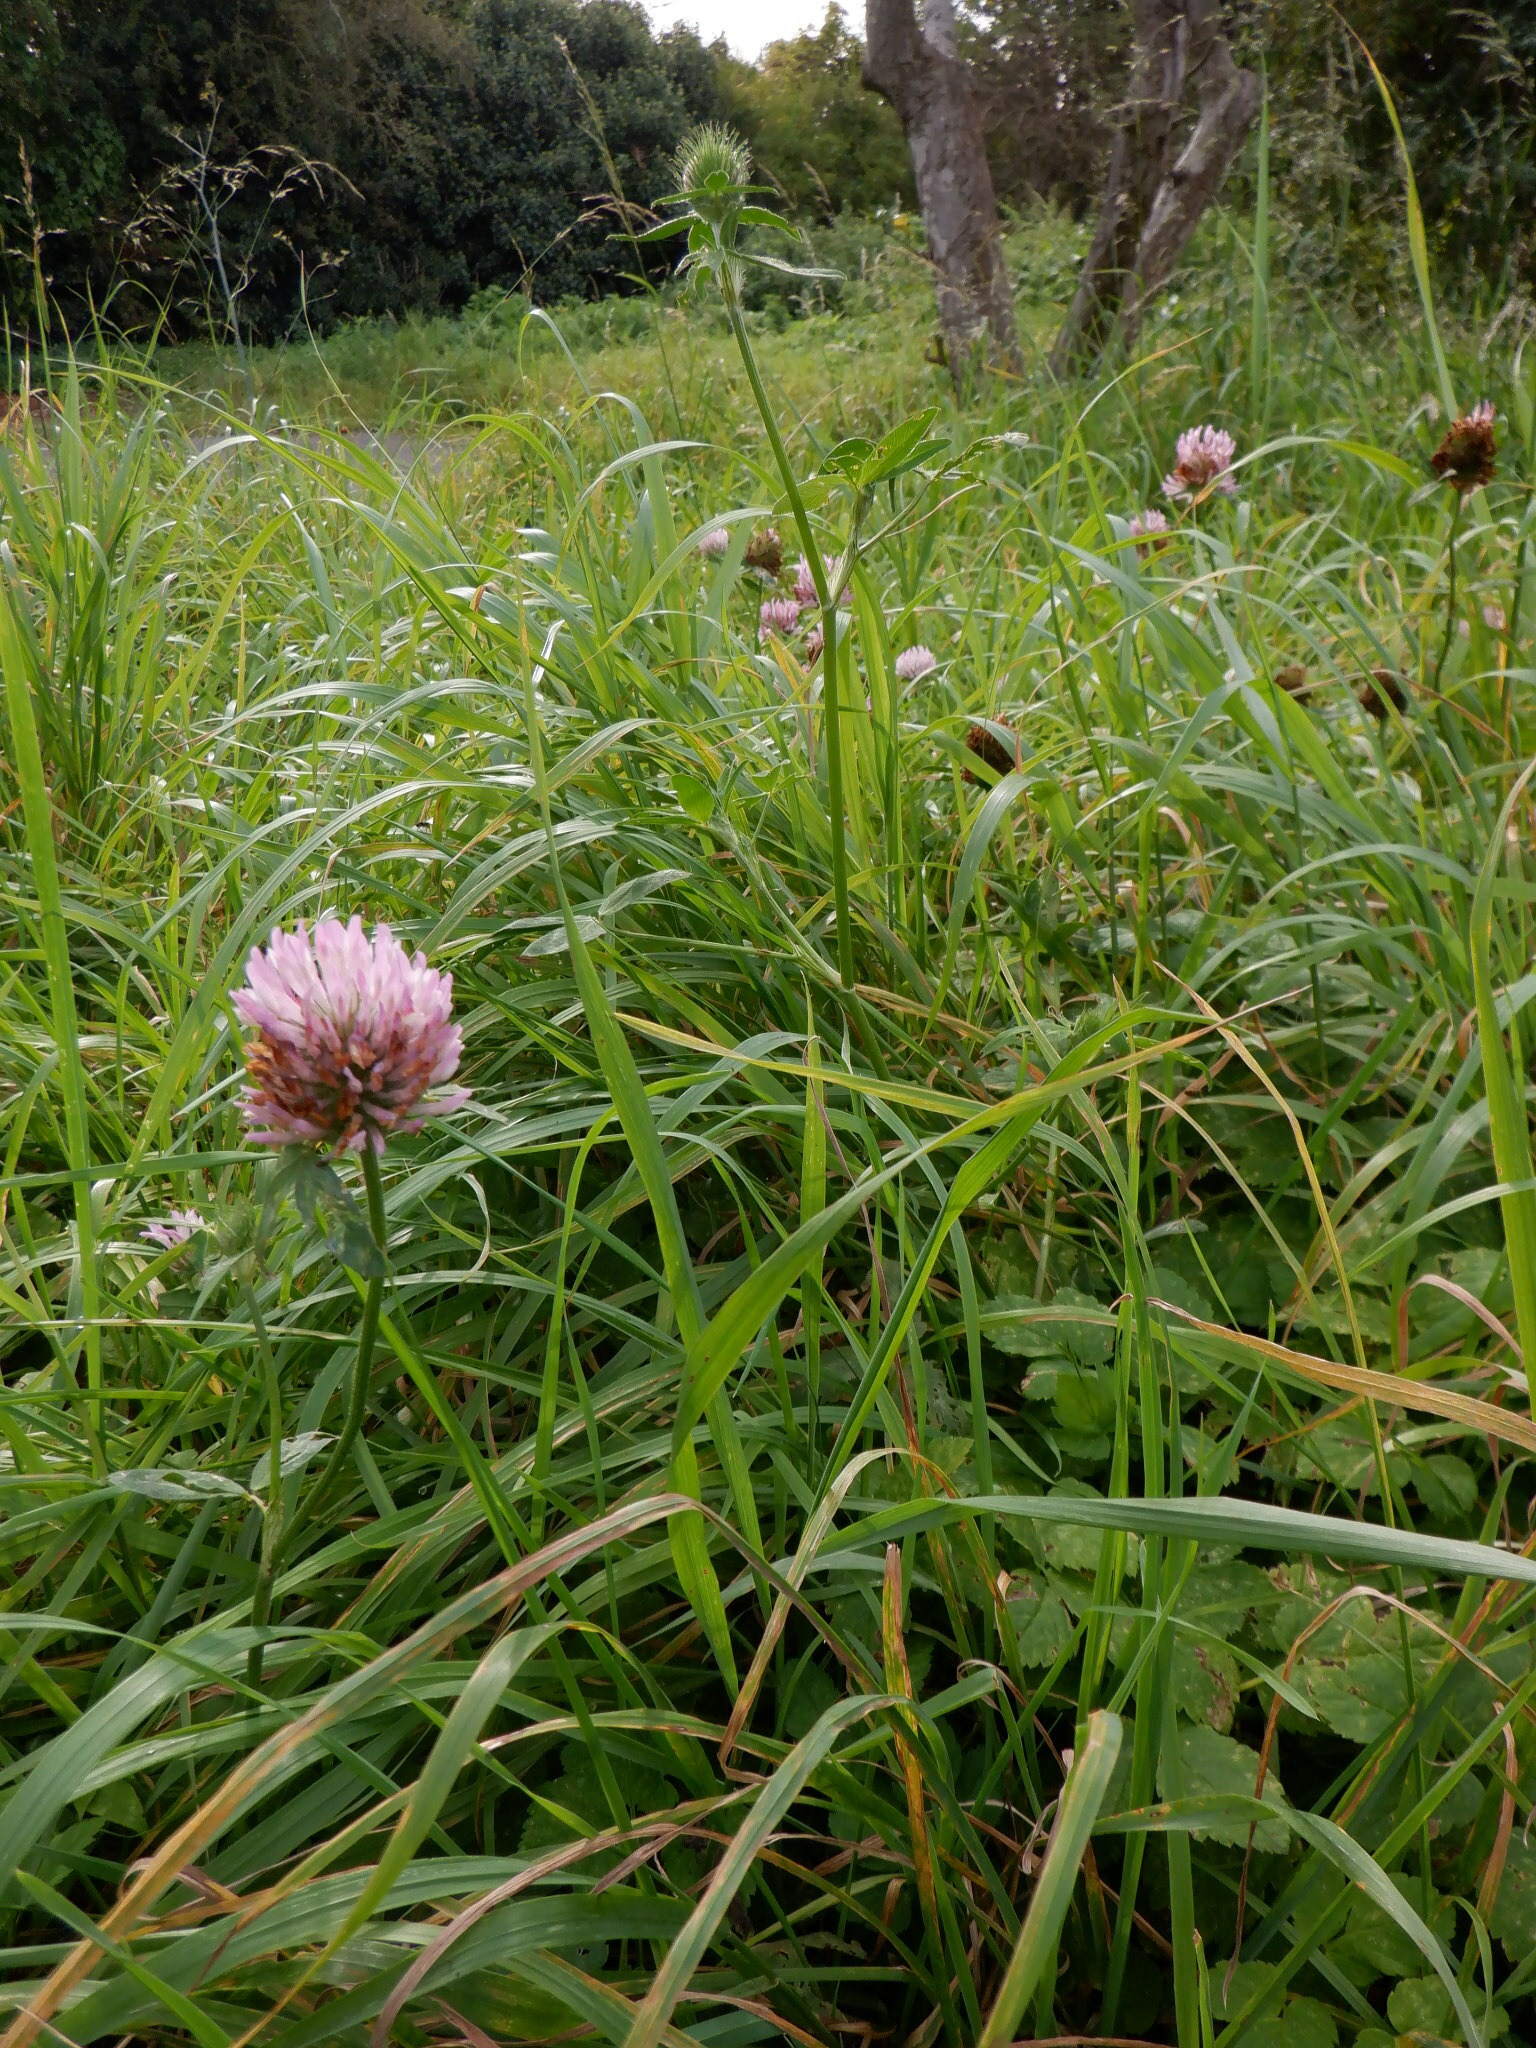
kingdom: Plantae
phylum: Tracheophyta
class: Magnoliopsida
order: Fabales
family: Fabaceae
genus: Trifolium
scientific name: Trifolium pratense
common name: Red clover
